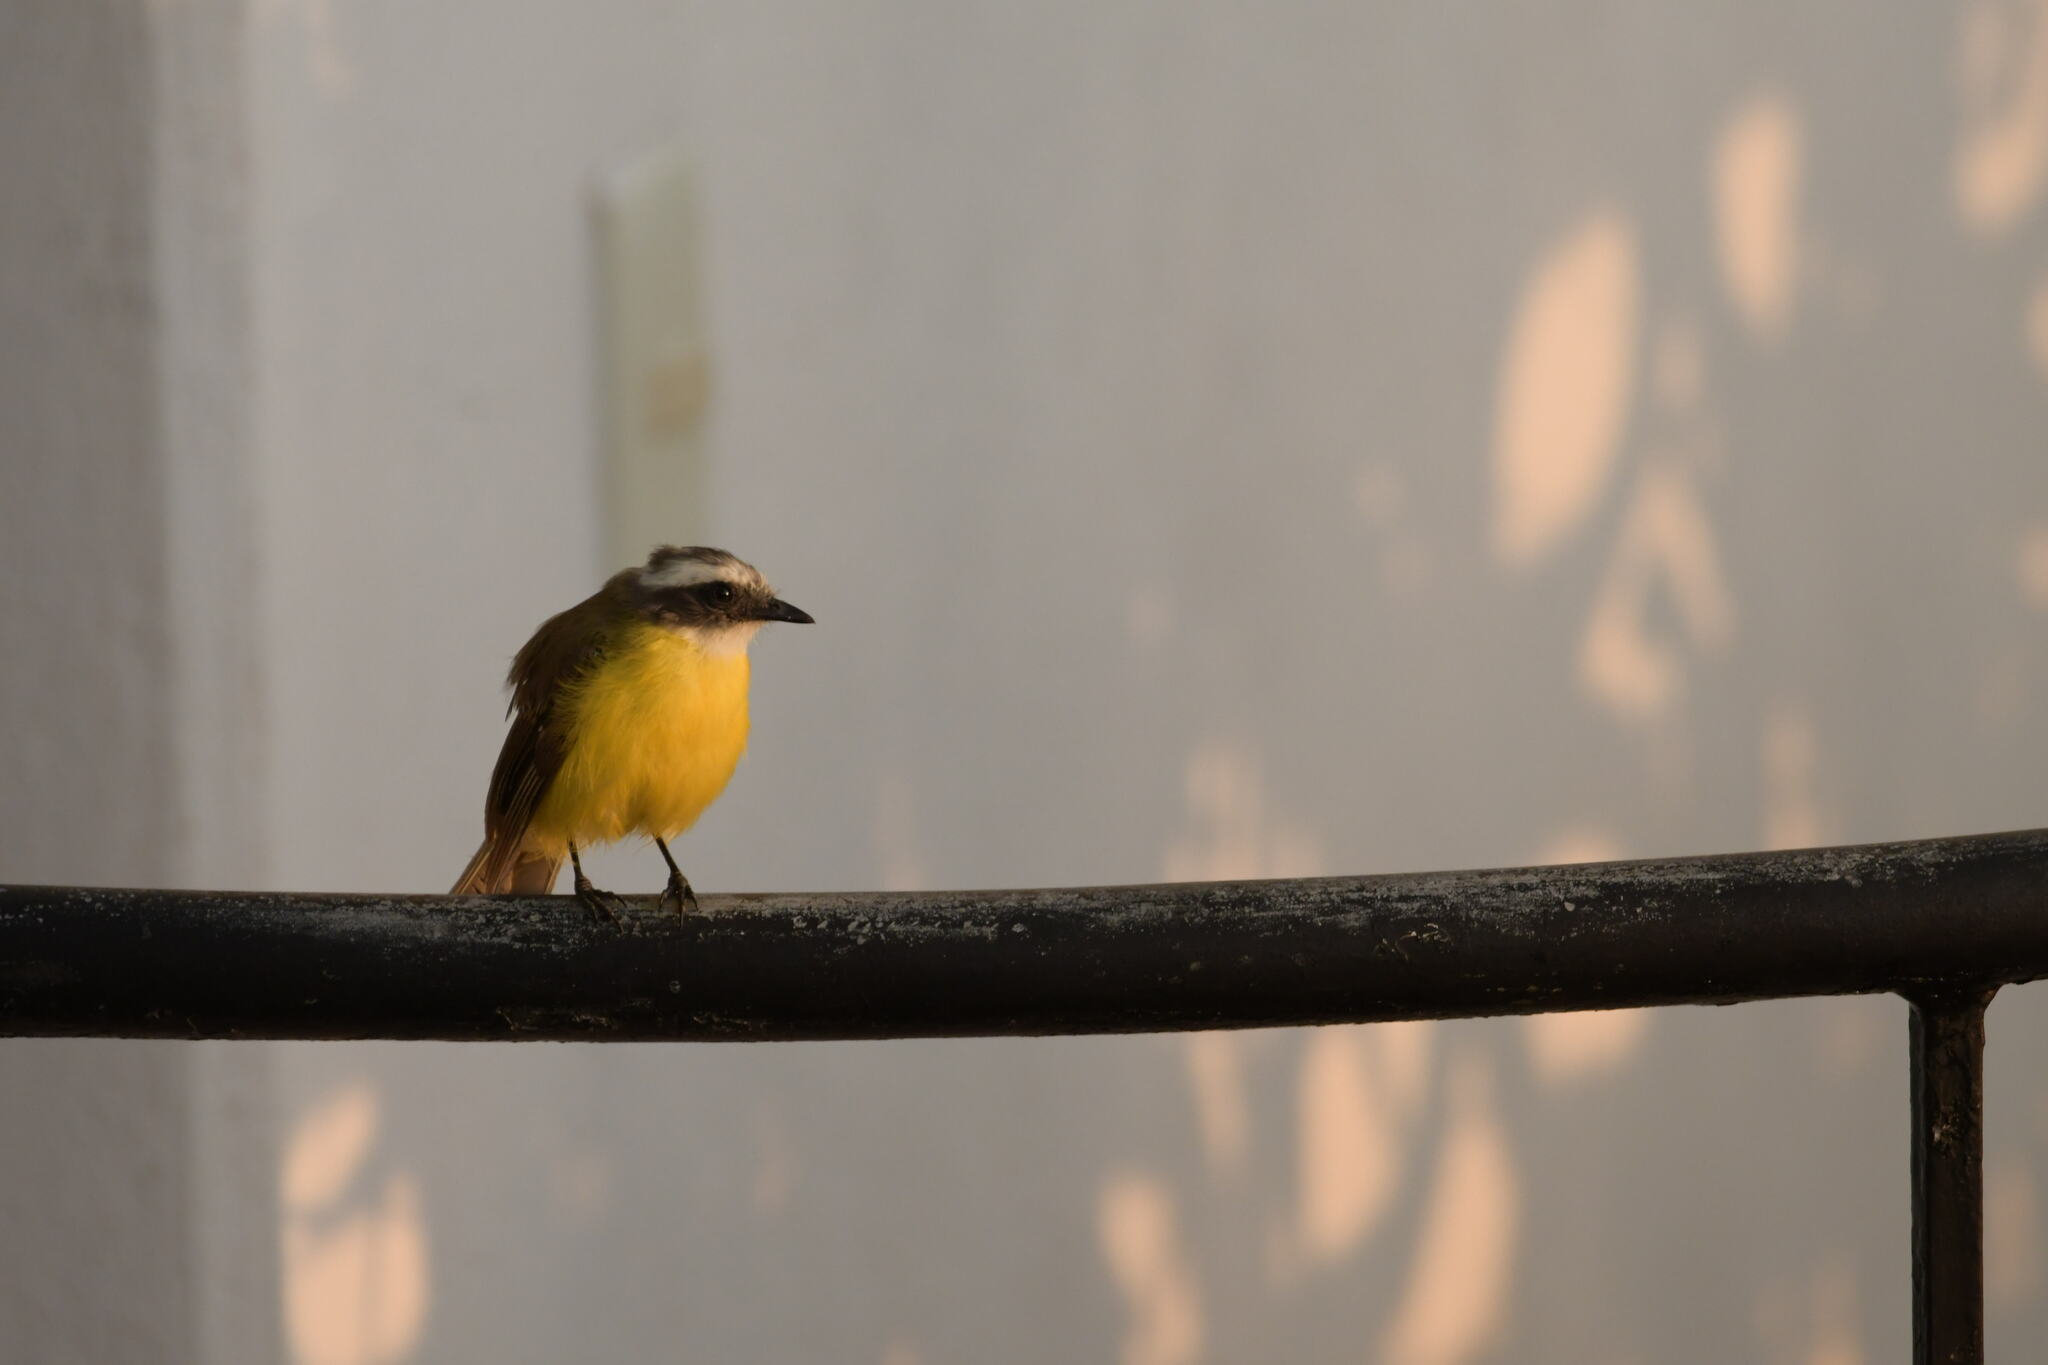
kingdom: Animalia
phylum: Chordata
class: Aves
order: Passeriformes
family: Tyrannidae
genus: Myiozetetes
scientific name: Myiozetetes similis
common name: Social flycatcher
